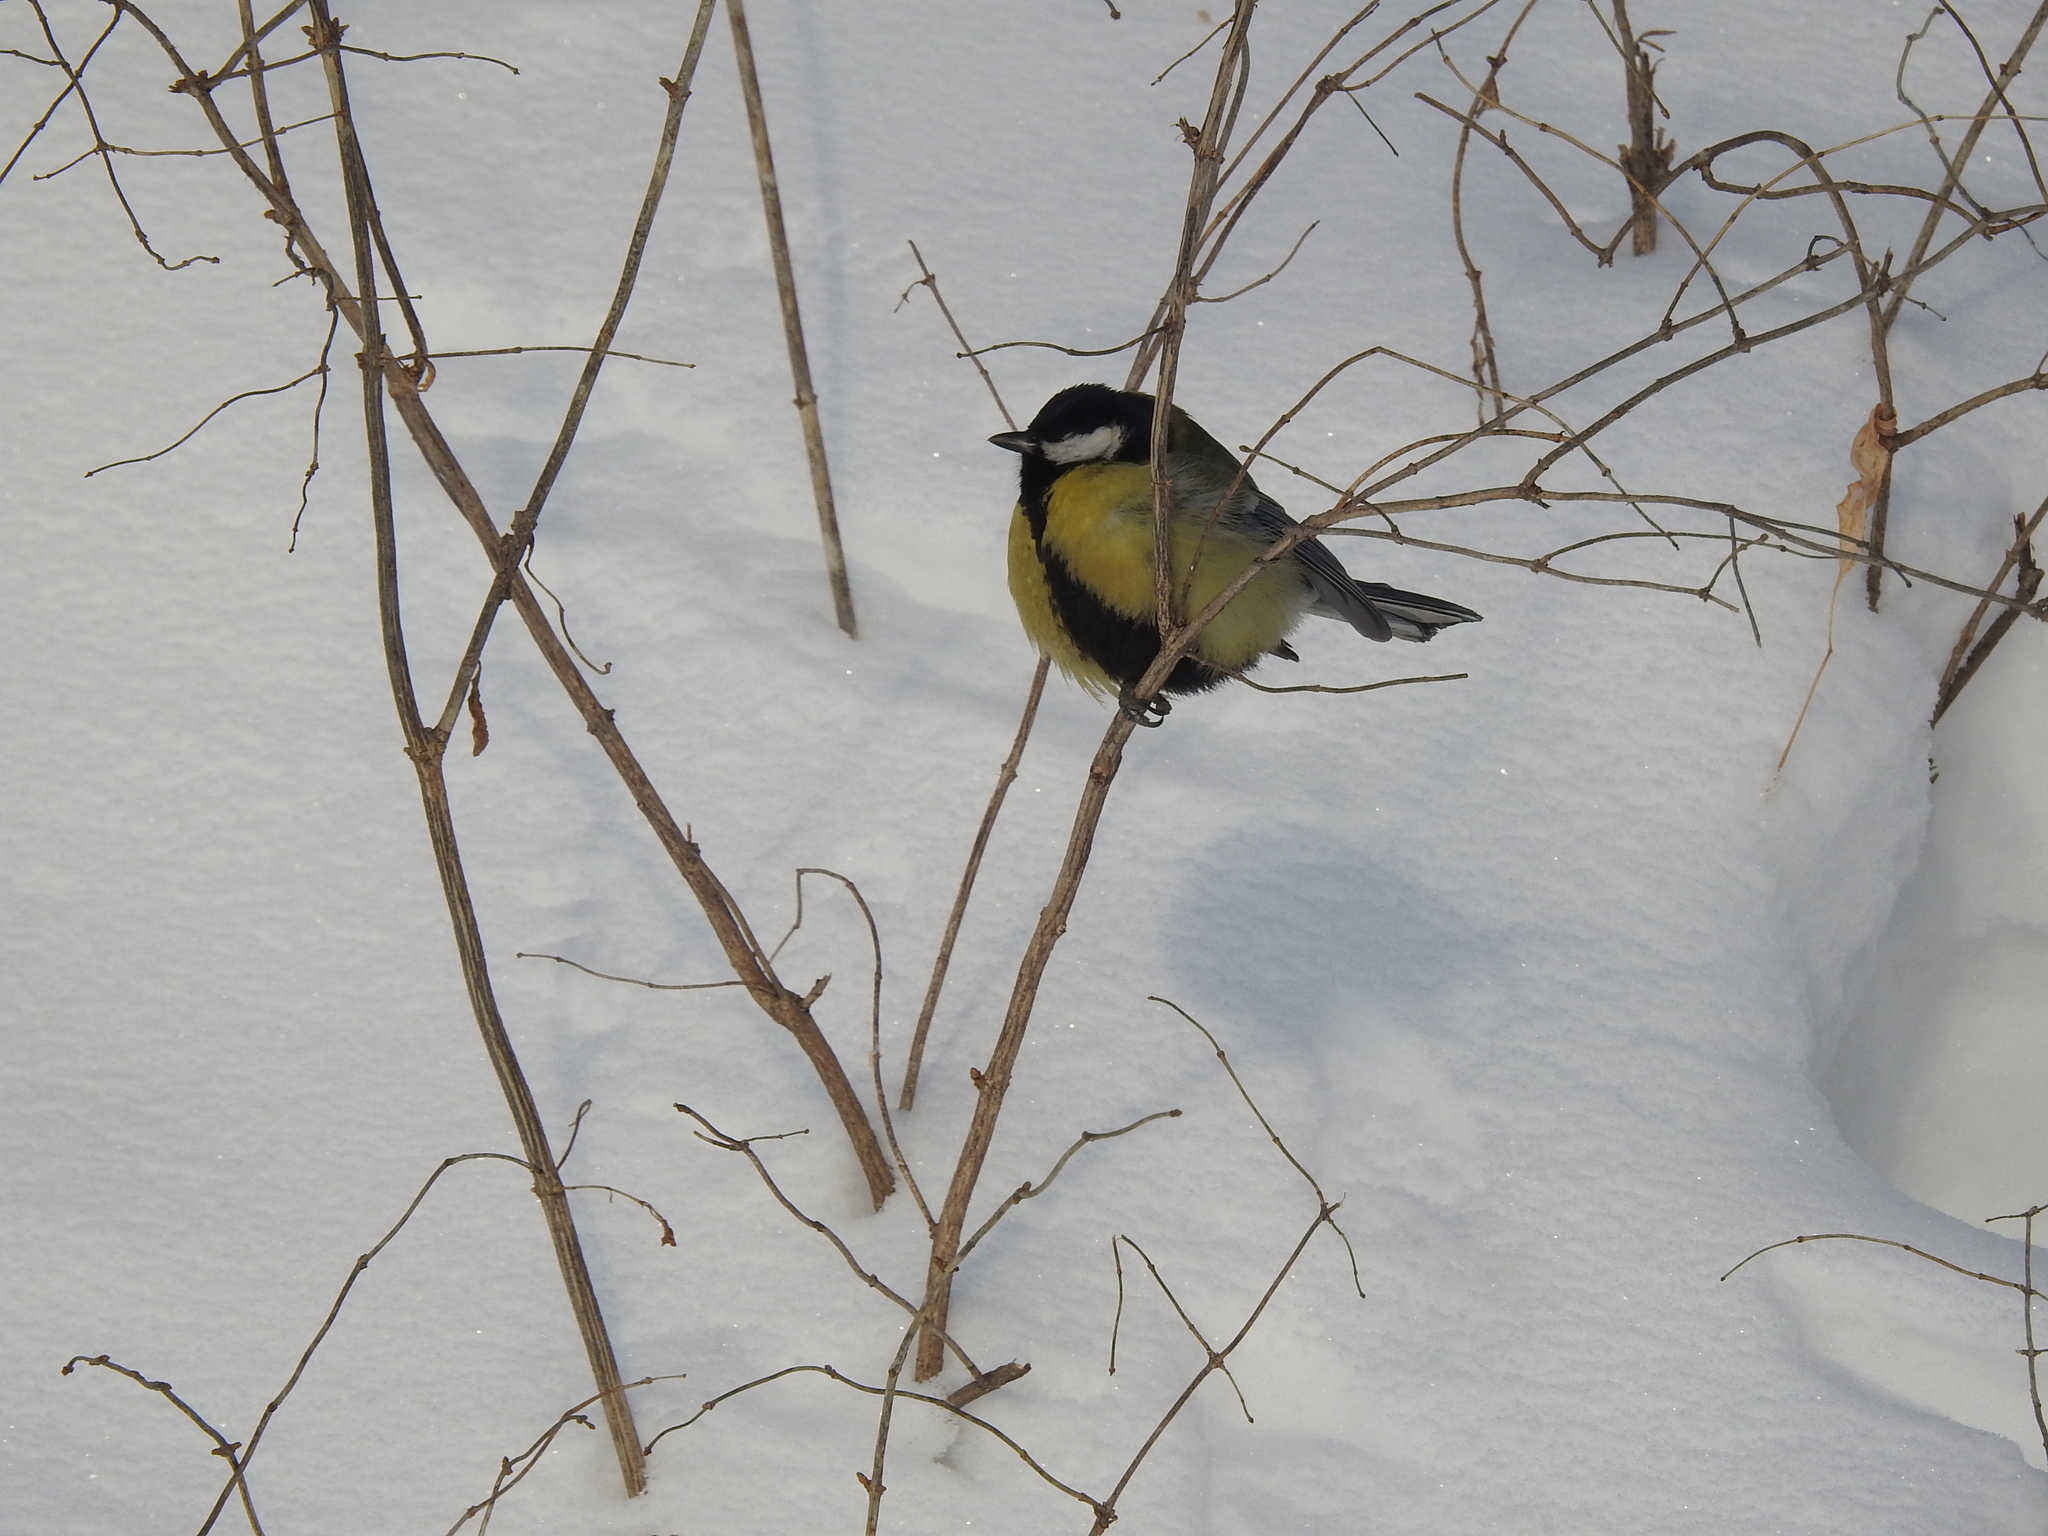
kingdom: Animalia
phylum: Chordata
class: Aves
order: Passeriformes
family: Paridae
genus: Parus
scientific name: Parus major
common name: Great tit
